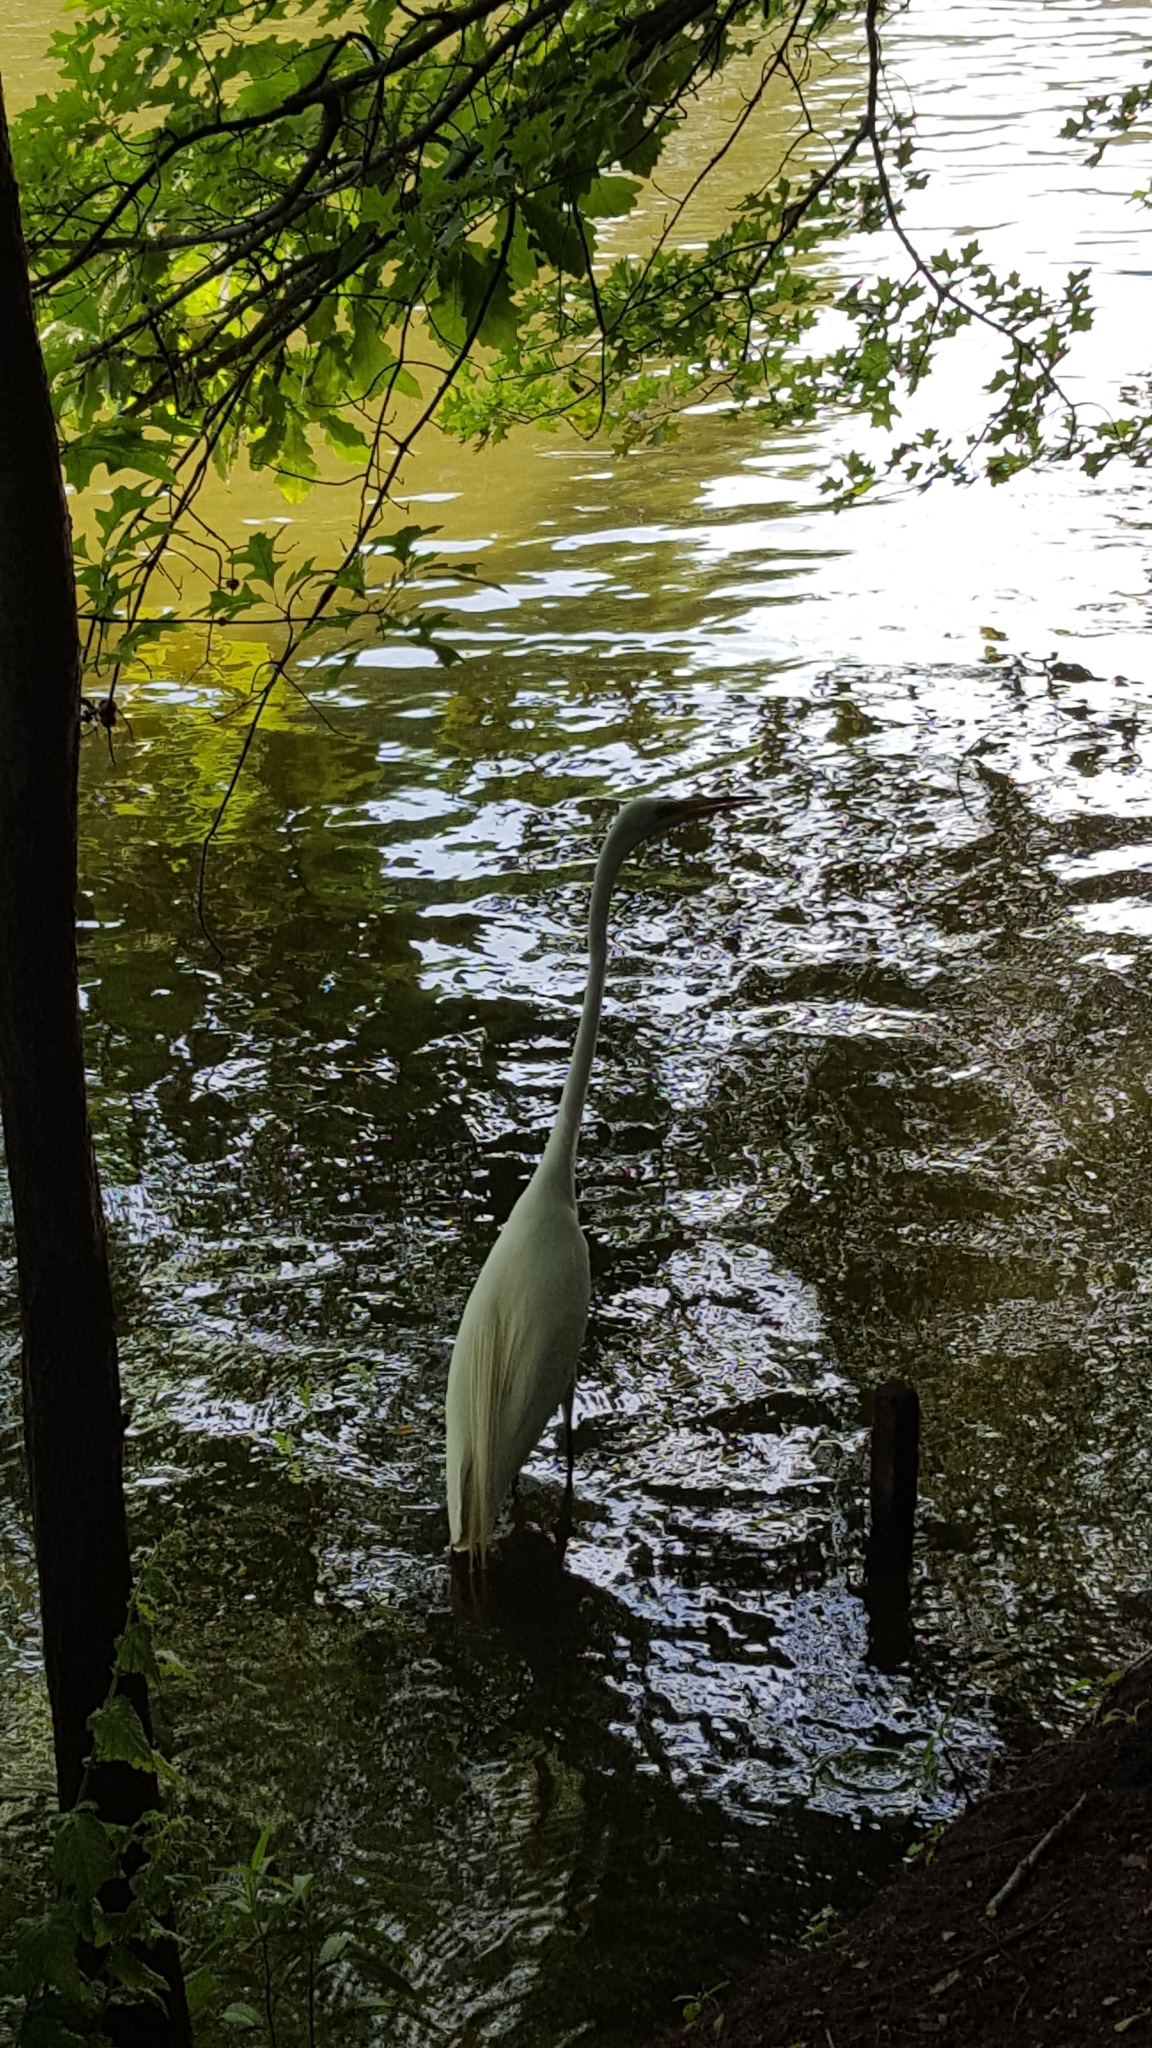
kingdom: Animalia
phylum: Chordata
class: Aves
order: Pelecaniformes
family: Ardeidae
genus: Ardea
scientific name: Ardea alba
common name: Great egret
